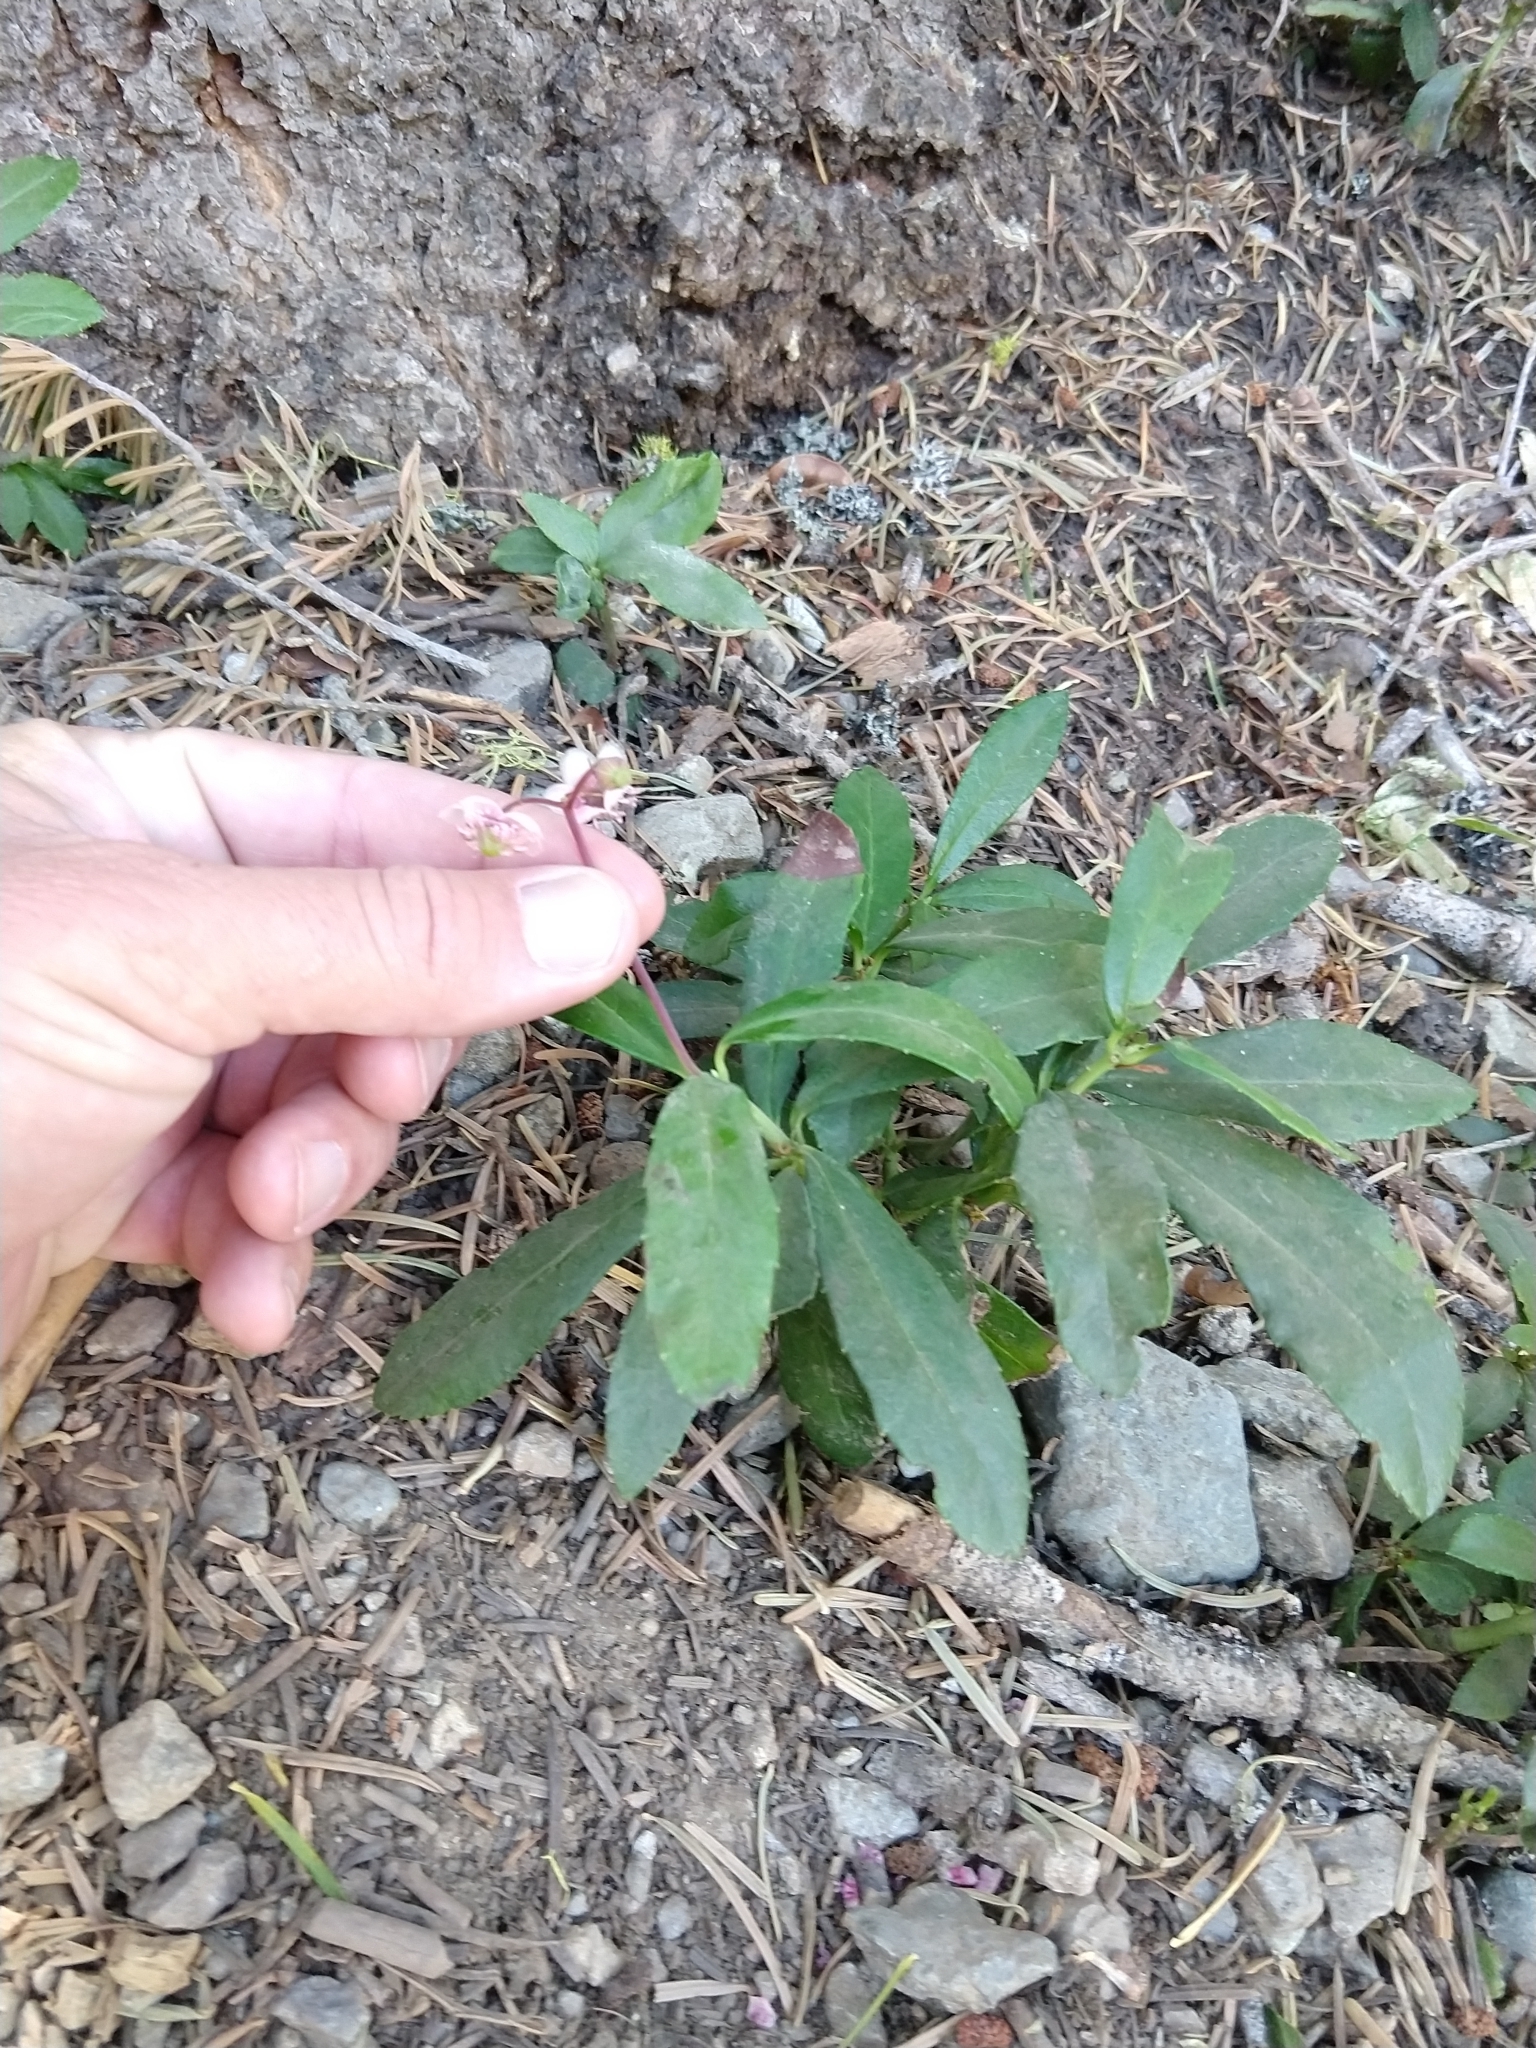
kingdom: Plantae
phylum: Tracheophyta
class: Magnoliopsida
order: Ericales
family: Ericaceae
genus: Chimaphila
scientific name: Chimaphila umbellata
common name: Pipsissewa
